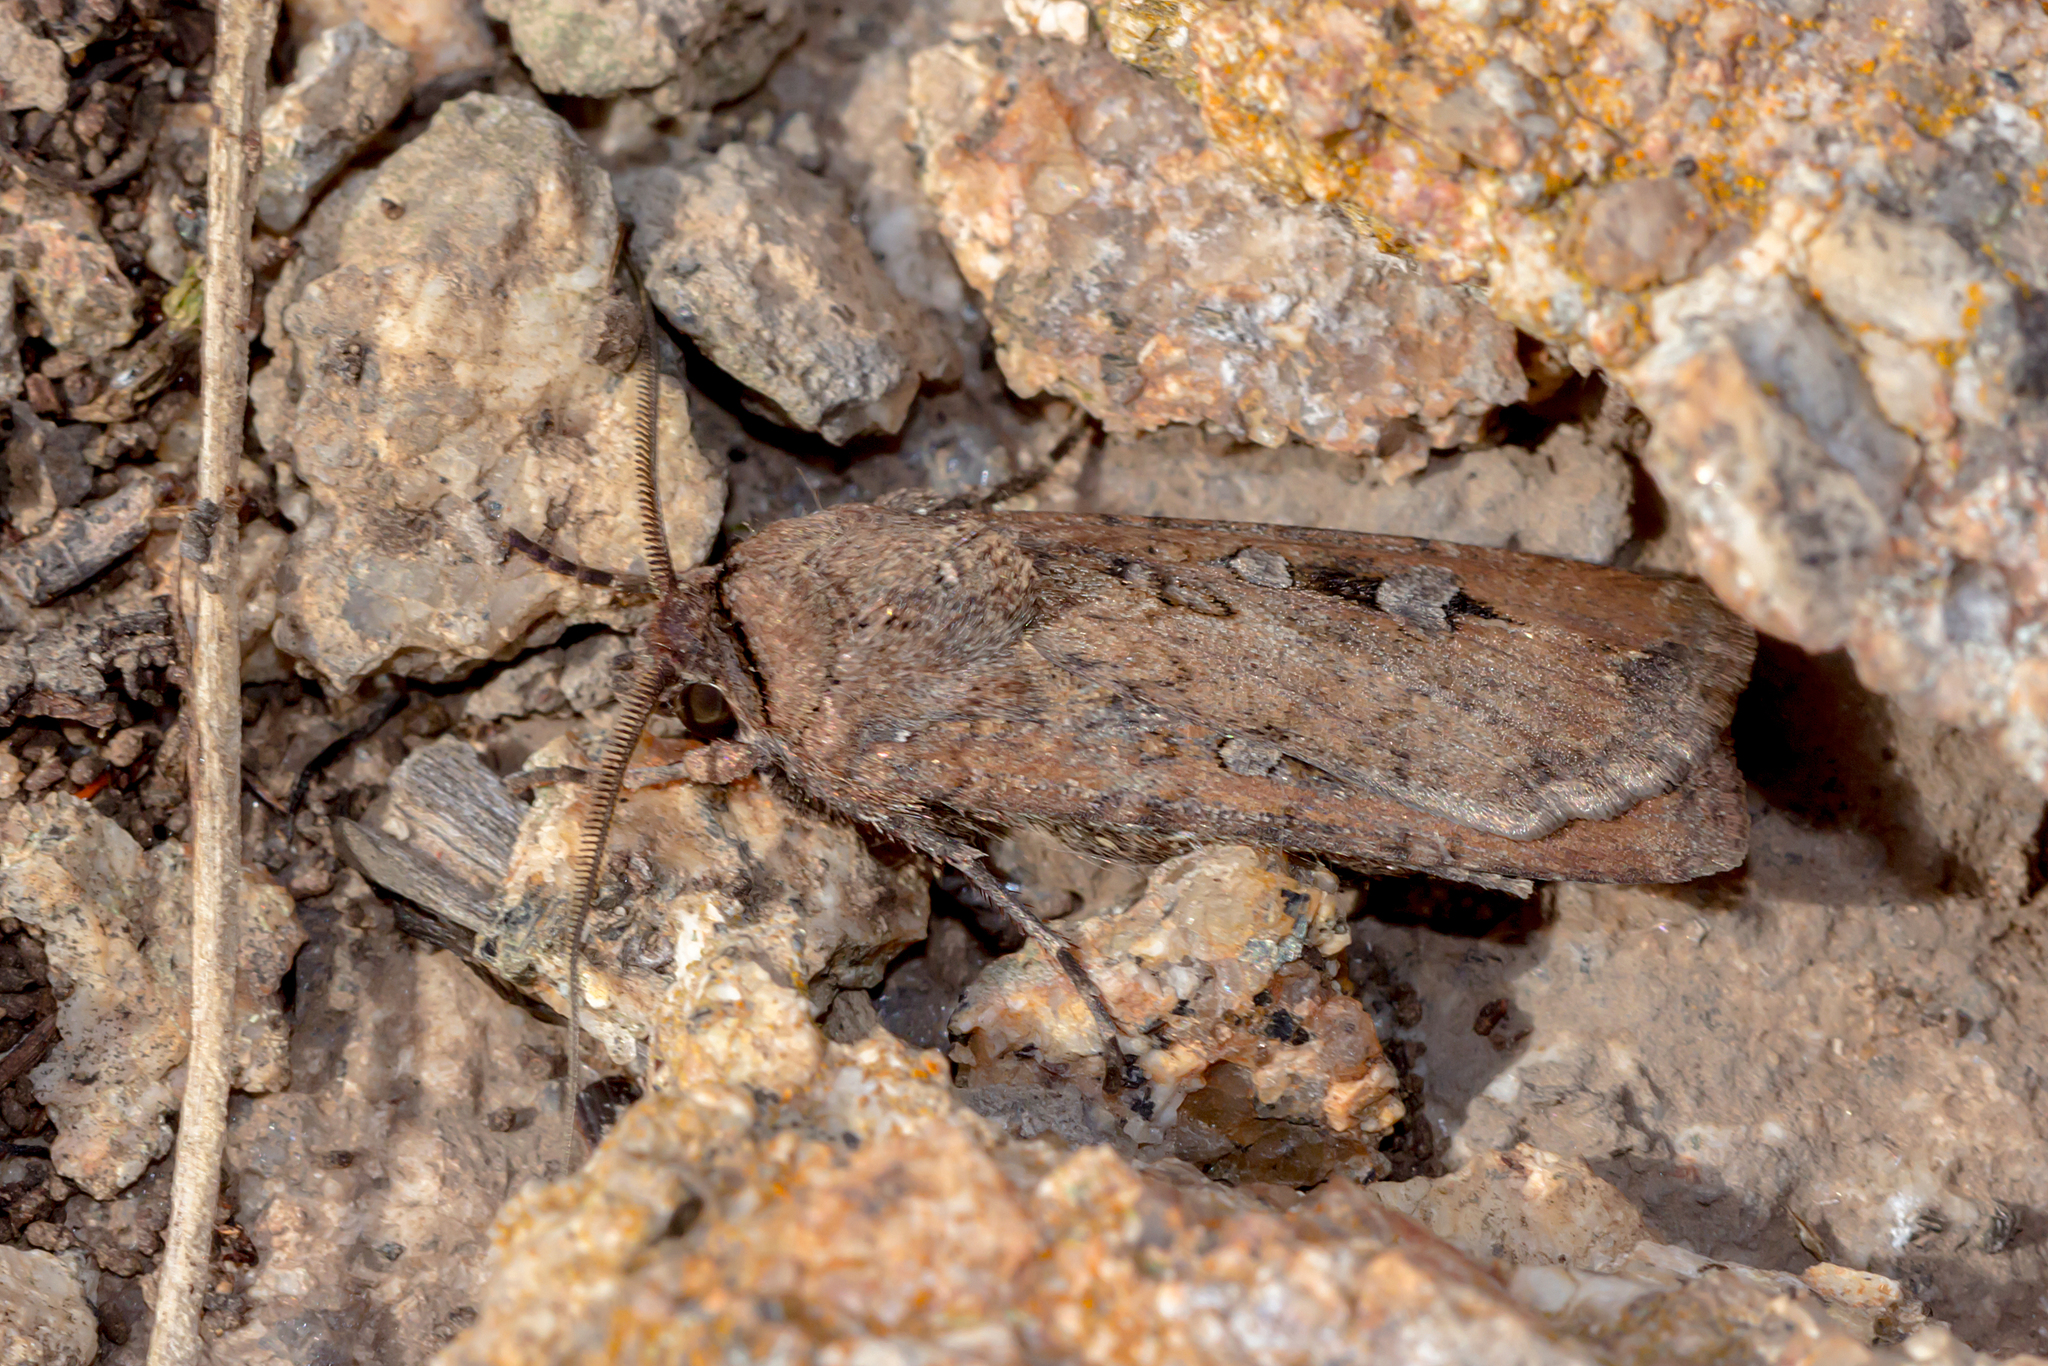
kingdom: Animalia
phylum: Arthropoda
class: Insecta
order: Lepidoptera
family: Noctuidae
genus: Agrotis
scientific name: Agrotis infusa
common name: Bogong moth
